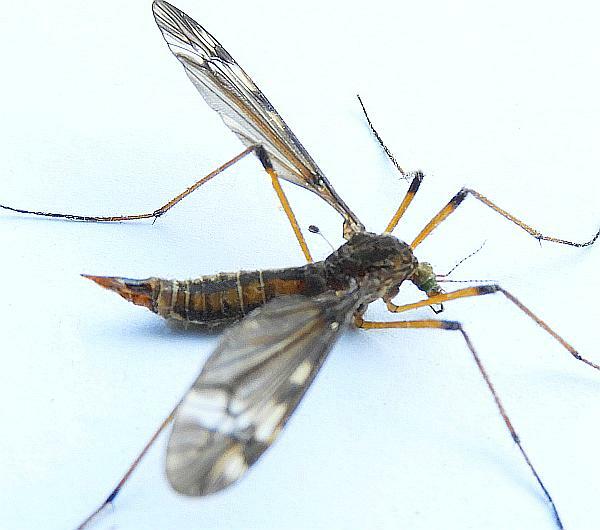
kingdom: Animalia
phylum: Arthropoda
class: Insecta
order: Diptera
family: Tipulidae
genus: Tipula
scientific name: Tipula fuliginosa
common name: Sooty crane fly
